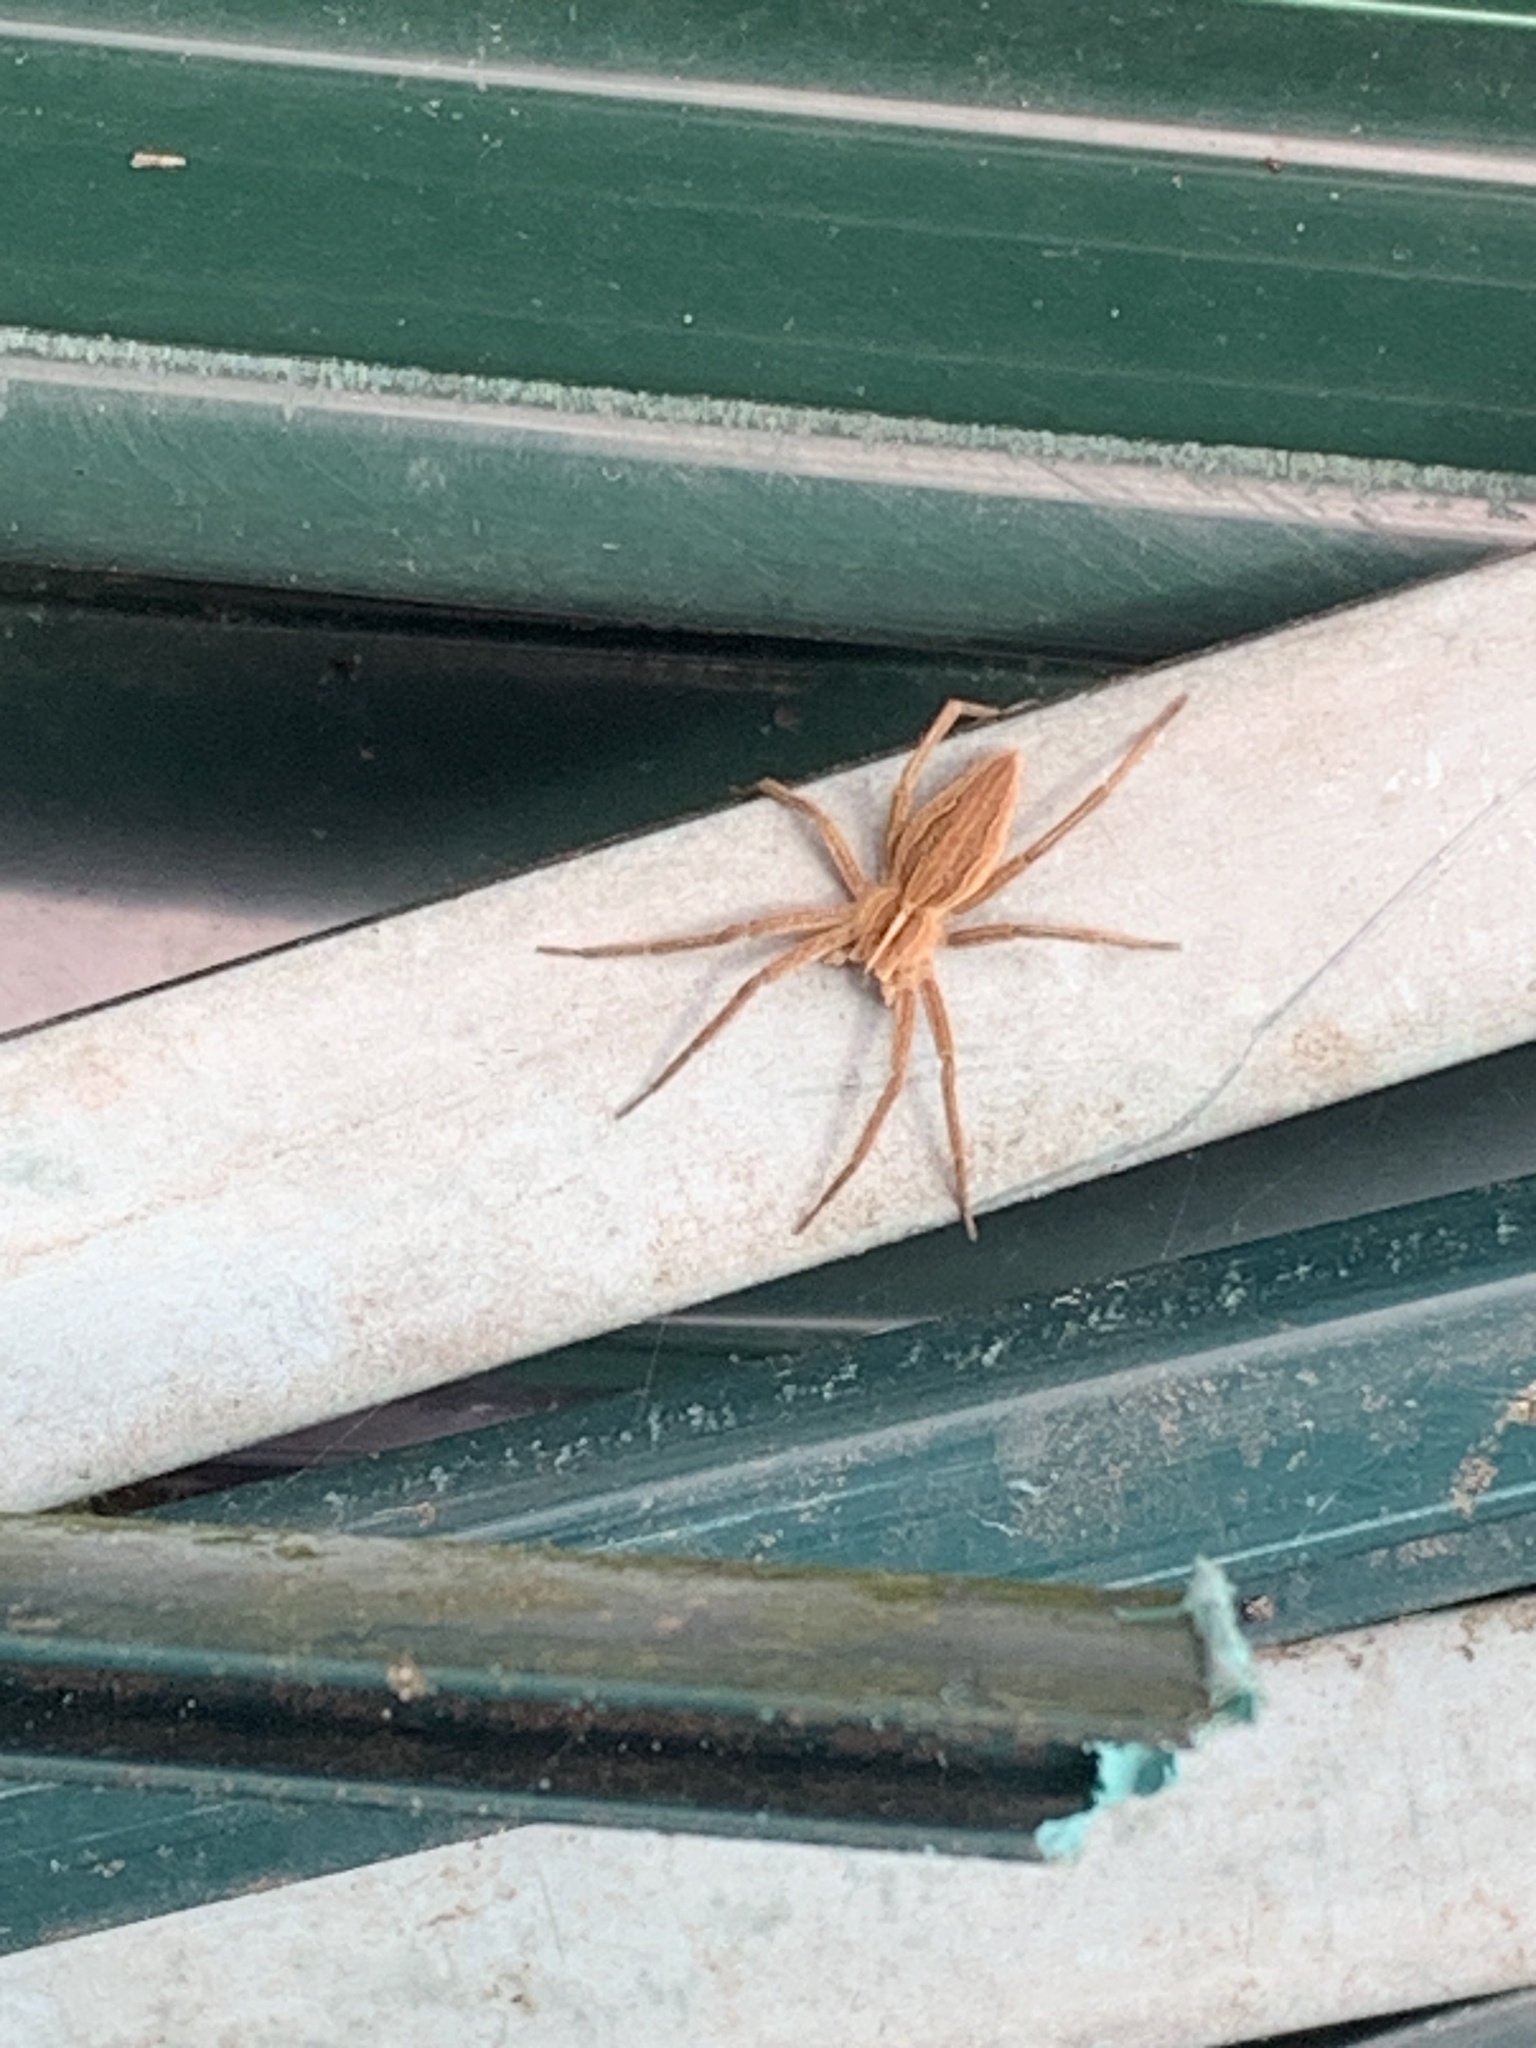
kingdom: Animalia
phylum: Arthropoda
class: Arachnida
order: Araneae
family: Pisauridae
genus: Pisaura
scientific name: Pisaura mirabilis
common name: Tent spider
